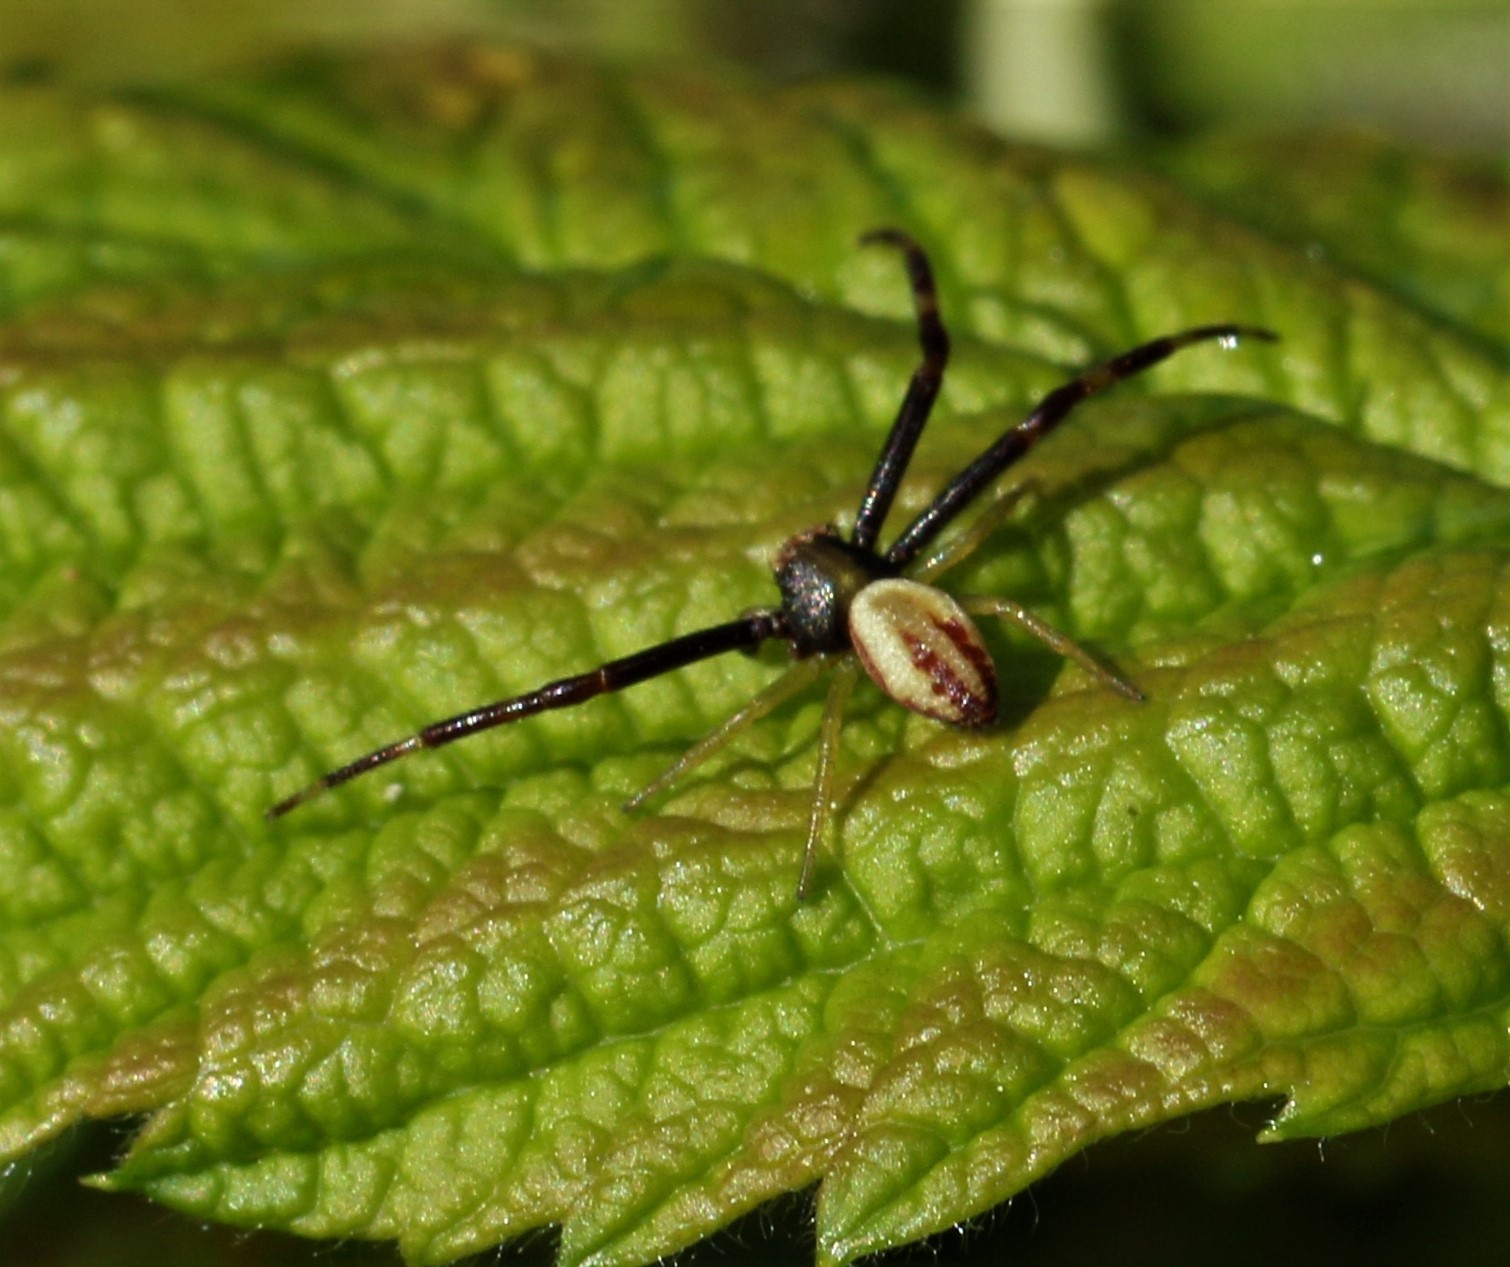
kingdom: Animalia
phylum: Arthropoda
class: Arachnida
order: Araneae
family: Thomisidae
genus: Misumena
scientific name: Misumena vatia
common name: Goldenrod crab spider
